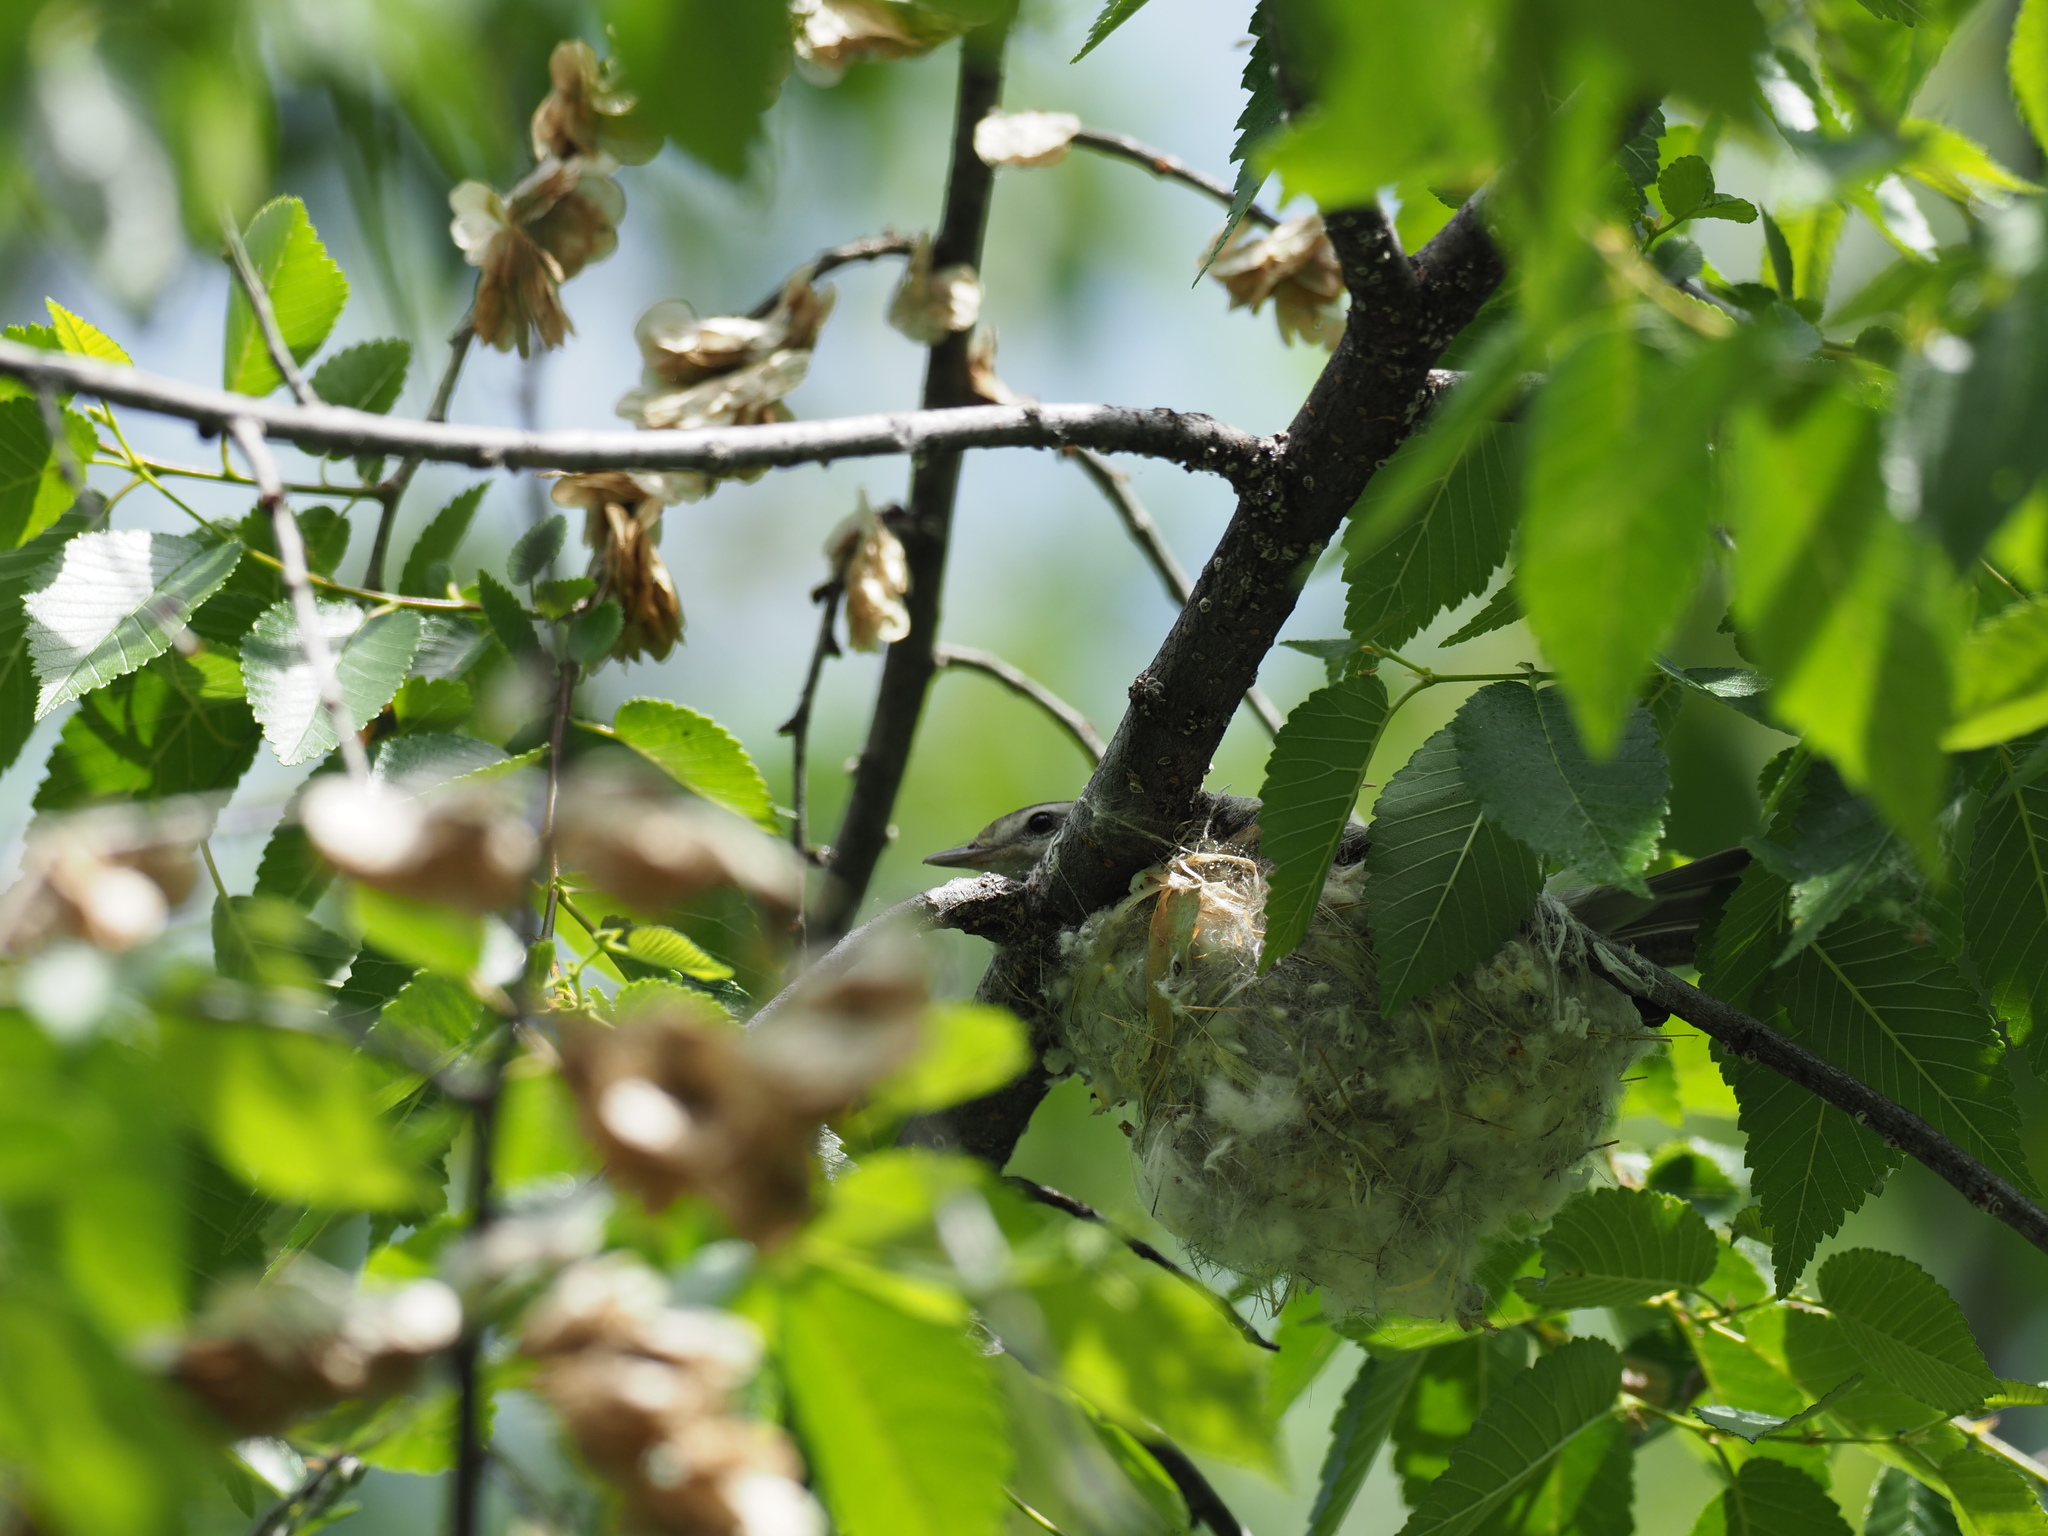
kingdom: Animalia
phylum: Chordata
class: Aves
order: Passeriformes
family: Vireonidae
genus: Vireo
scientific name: Vireo gilvus
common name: Warbling vireo
